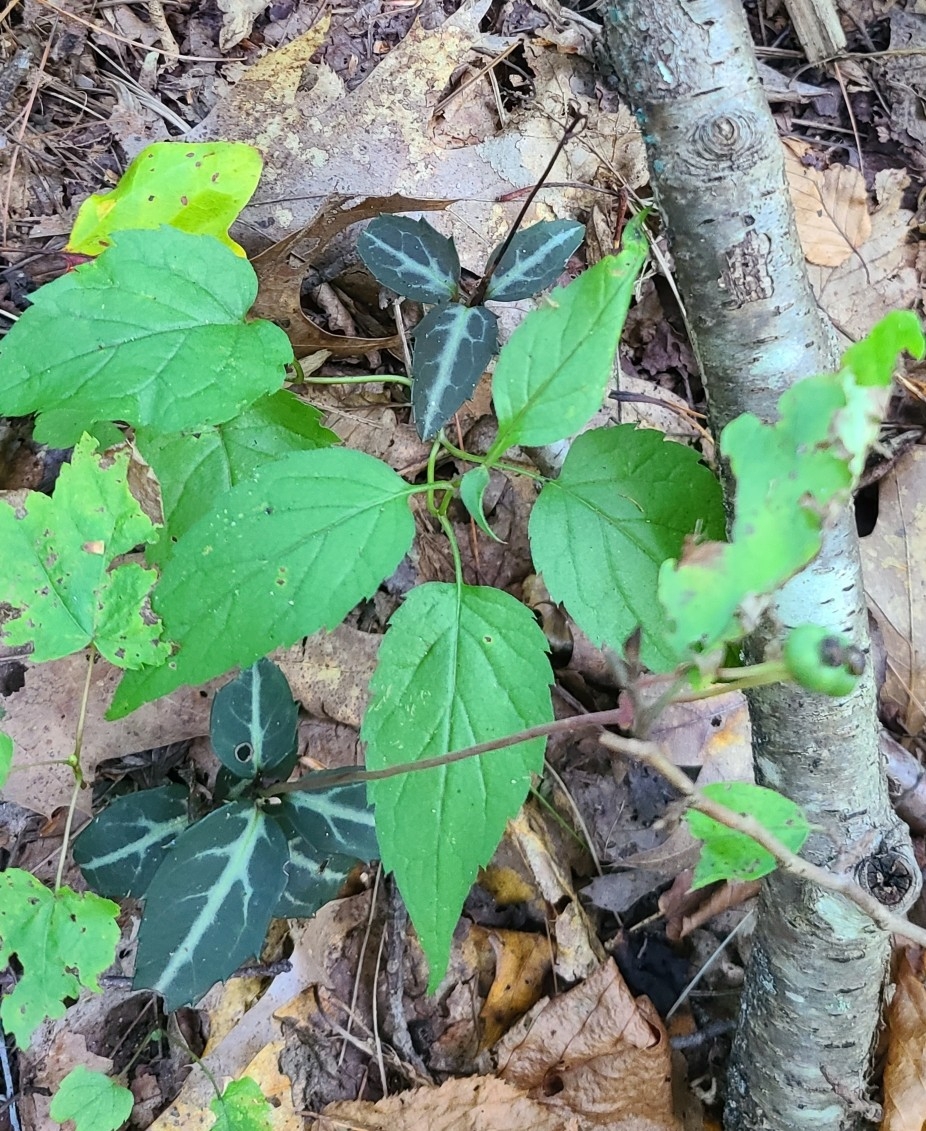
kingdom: Plantae
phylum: Tracheophyta
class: Magnoliopsida
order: Ericales
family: Ericaceae
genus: Chimaphila
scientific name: Chimaphila maculata
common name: Spotted pipsissewa
